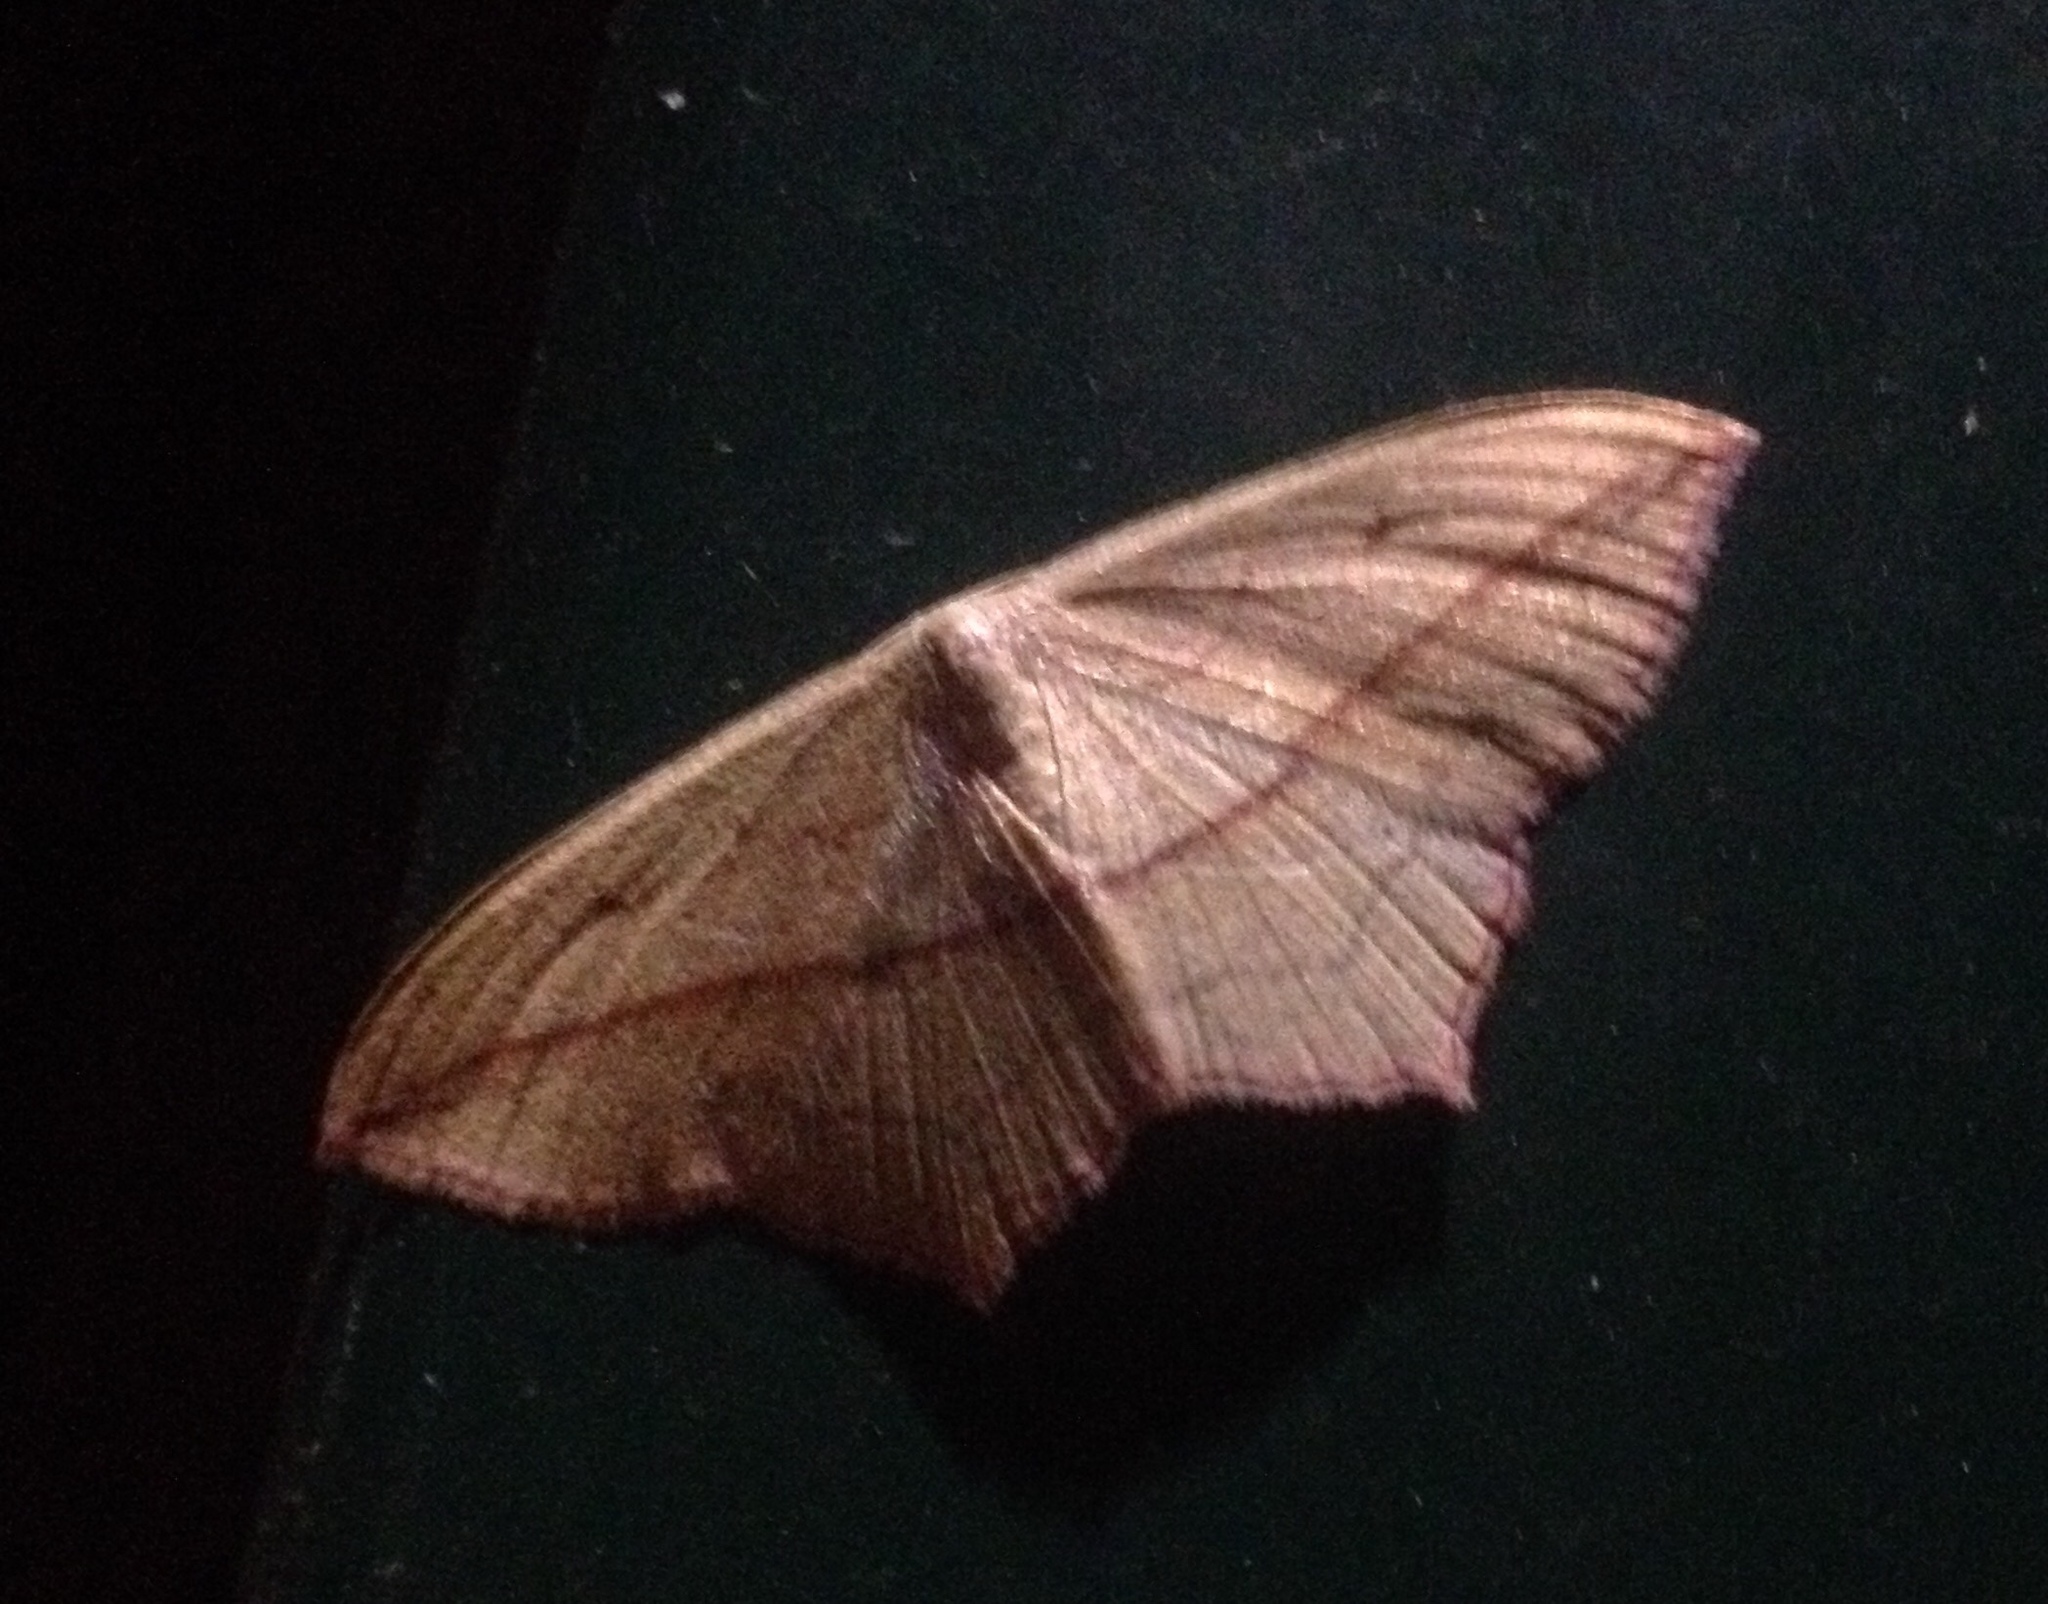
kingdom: Animalia
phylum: Arthropoda
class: Insecta
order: Lepidoptera
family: Geometridae
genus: Timandra
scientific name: Timandra comae
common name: Blood-vein
